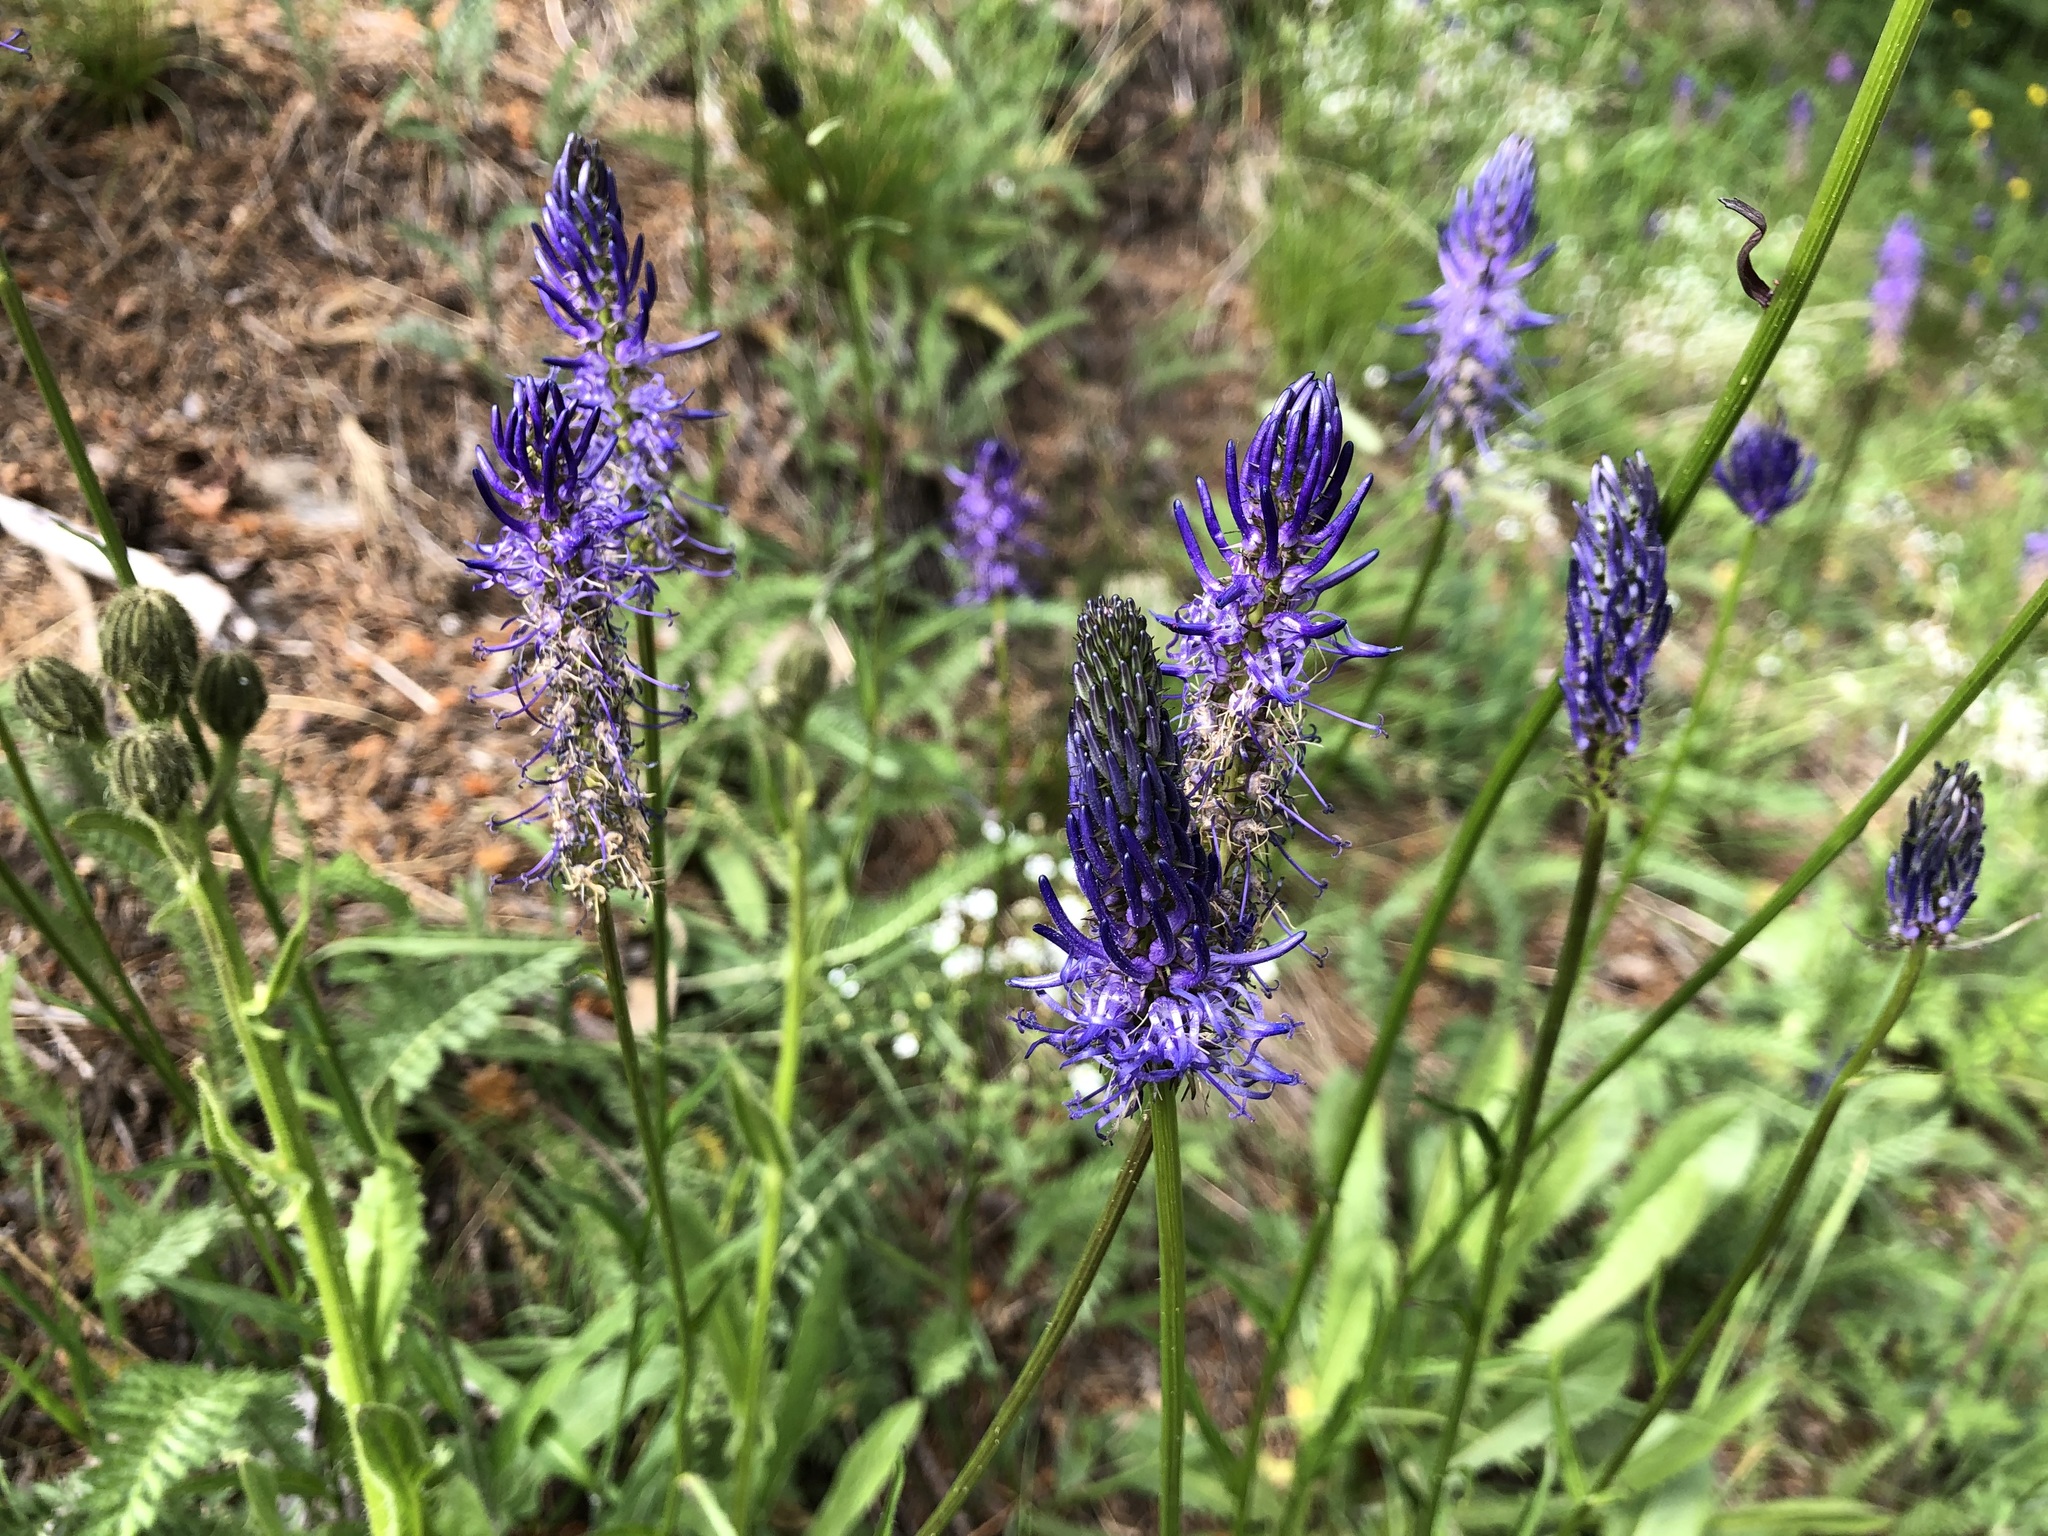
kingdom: Plantae
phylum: Tracheophyta
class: Magnoliopsida
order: Asterales
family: Campanulaceae
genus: Phyteuma
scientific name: Phyteuma betonicifolium
